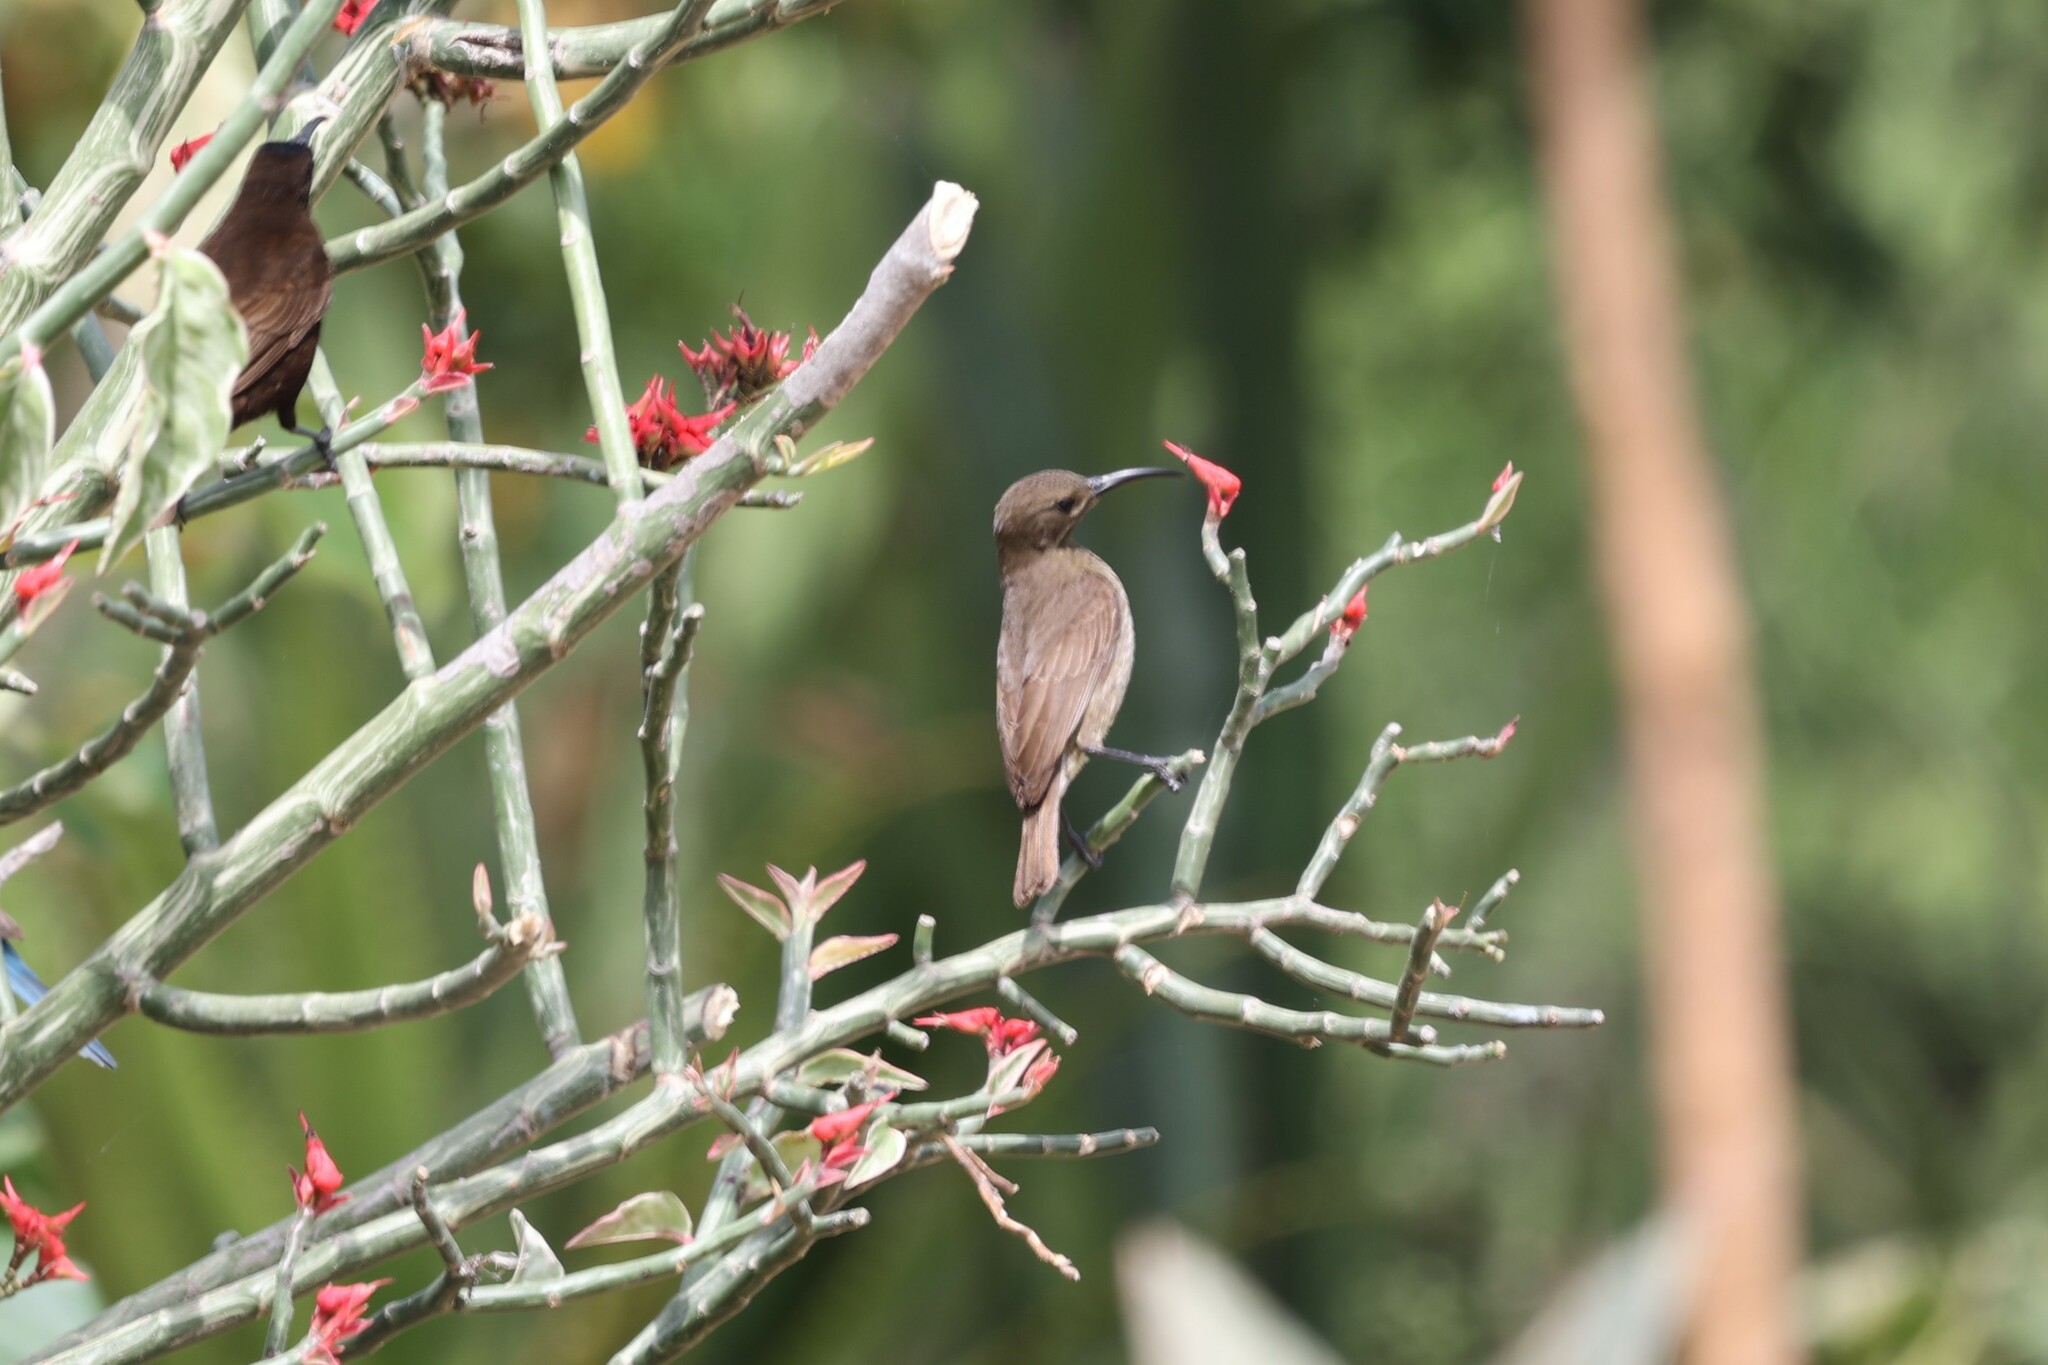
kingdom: Animalia
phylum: Chordata
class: Aves
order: Passeriformes
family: Nectariniidae
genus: Chalcomitra
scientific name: Chalcomitra senegalensis
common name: Scarlet-chested sunbird
